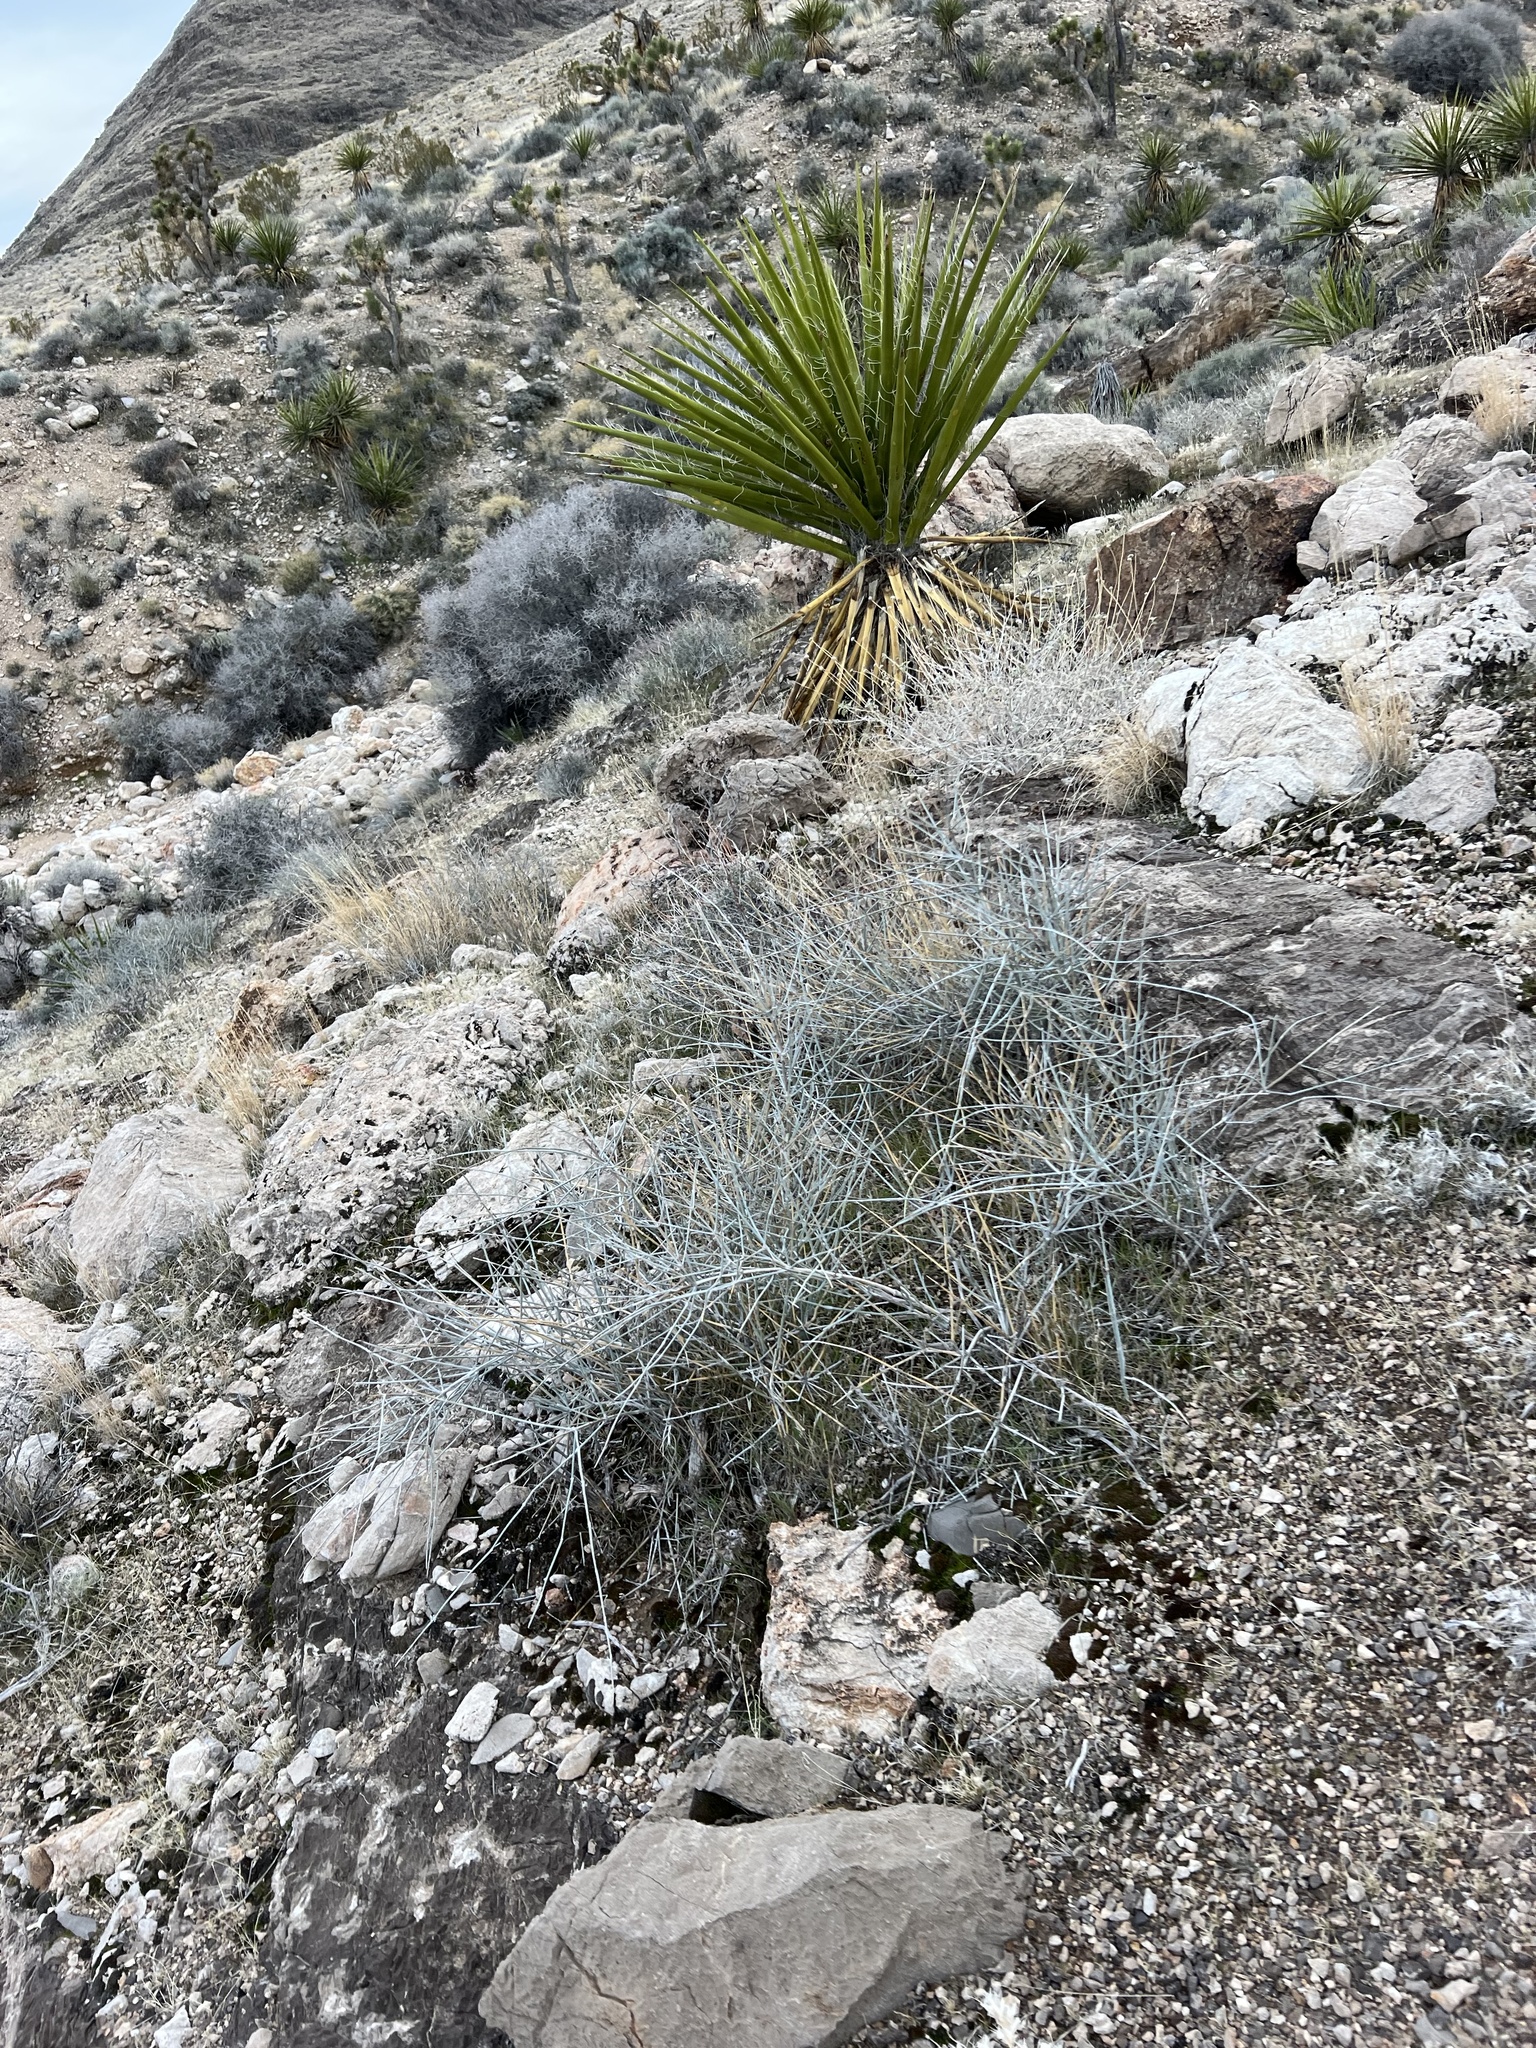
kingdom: Plantae
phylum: Tracheophyta
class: Gnetopsida
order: Ephedrales
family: Ephedraceae
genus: Ephedra
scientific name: Ephedra nevadensis
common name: Gray ephedra
